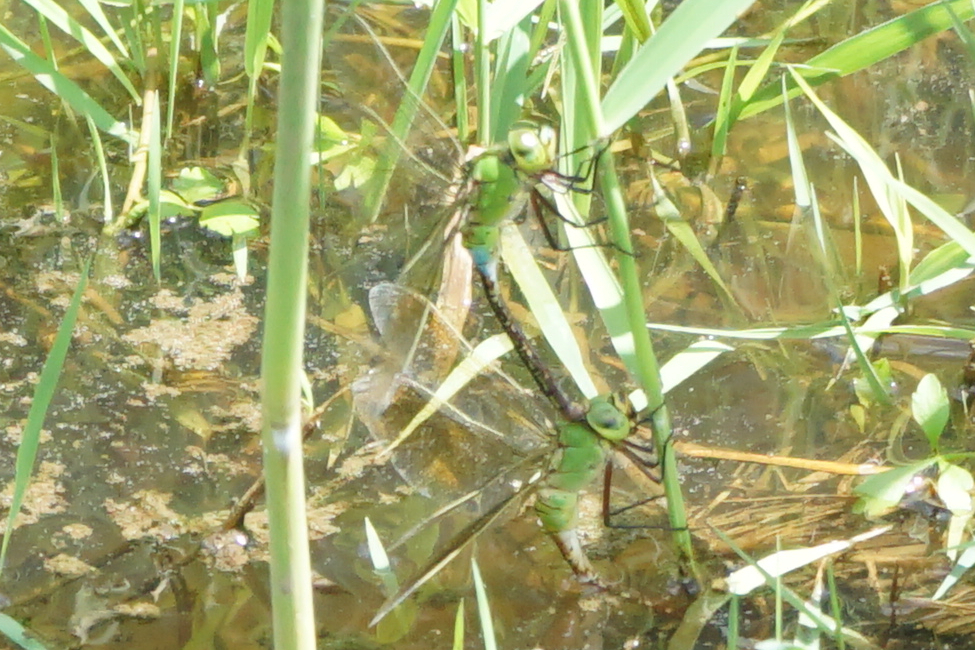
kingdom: Animalia
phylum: Arthropoda
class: Insecta
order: Odonata
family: Aeshnidae
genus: Anax
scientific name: Anax julius
